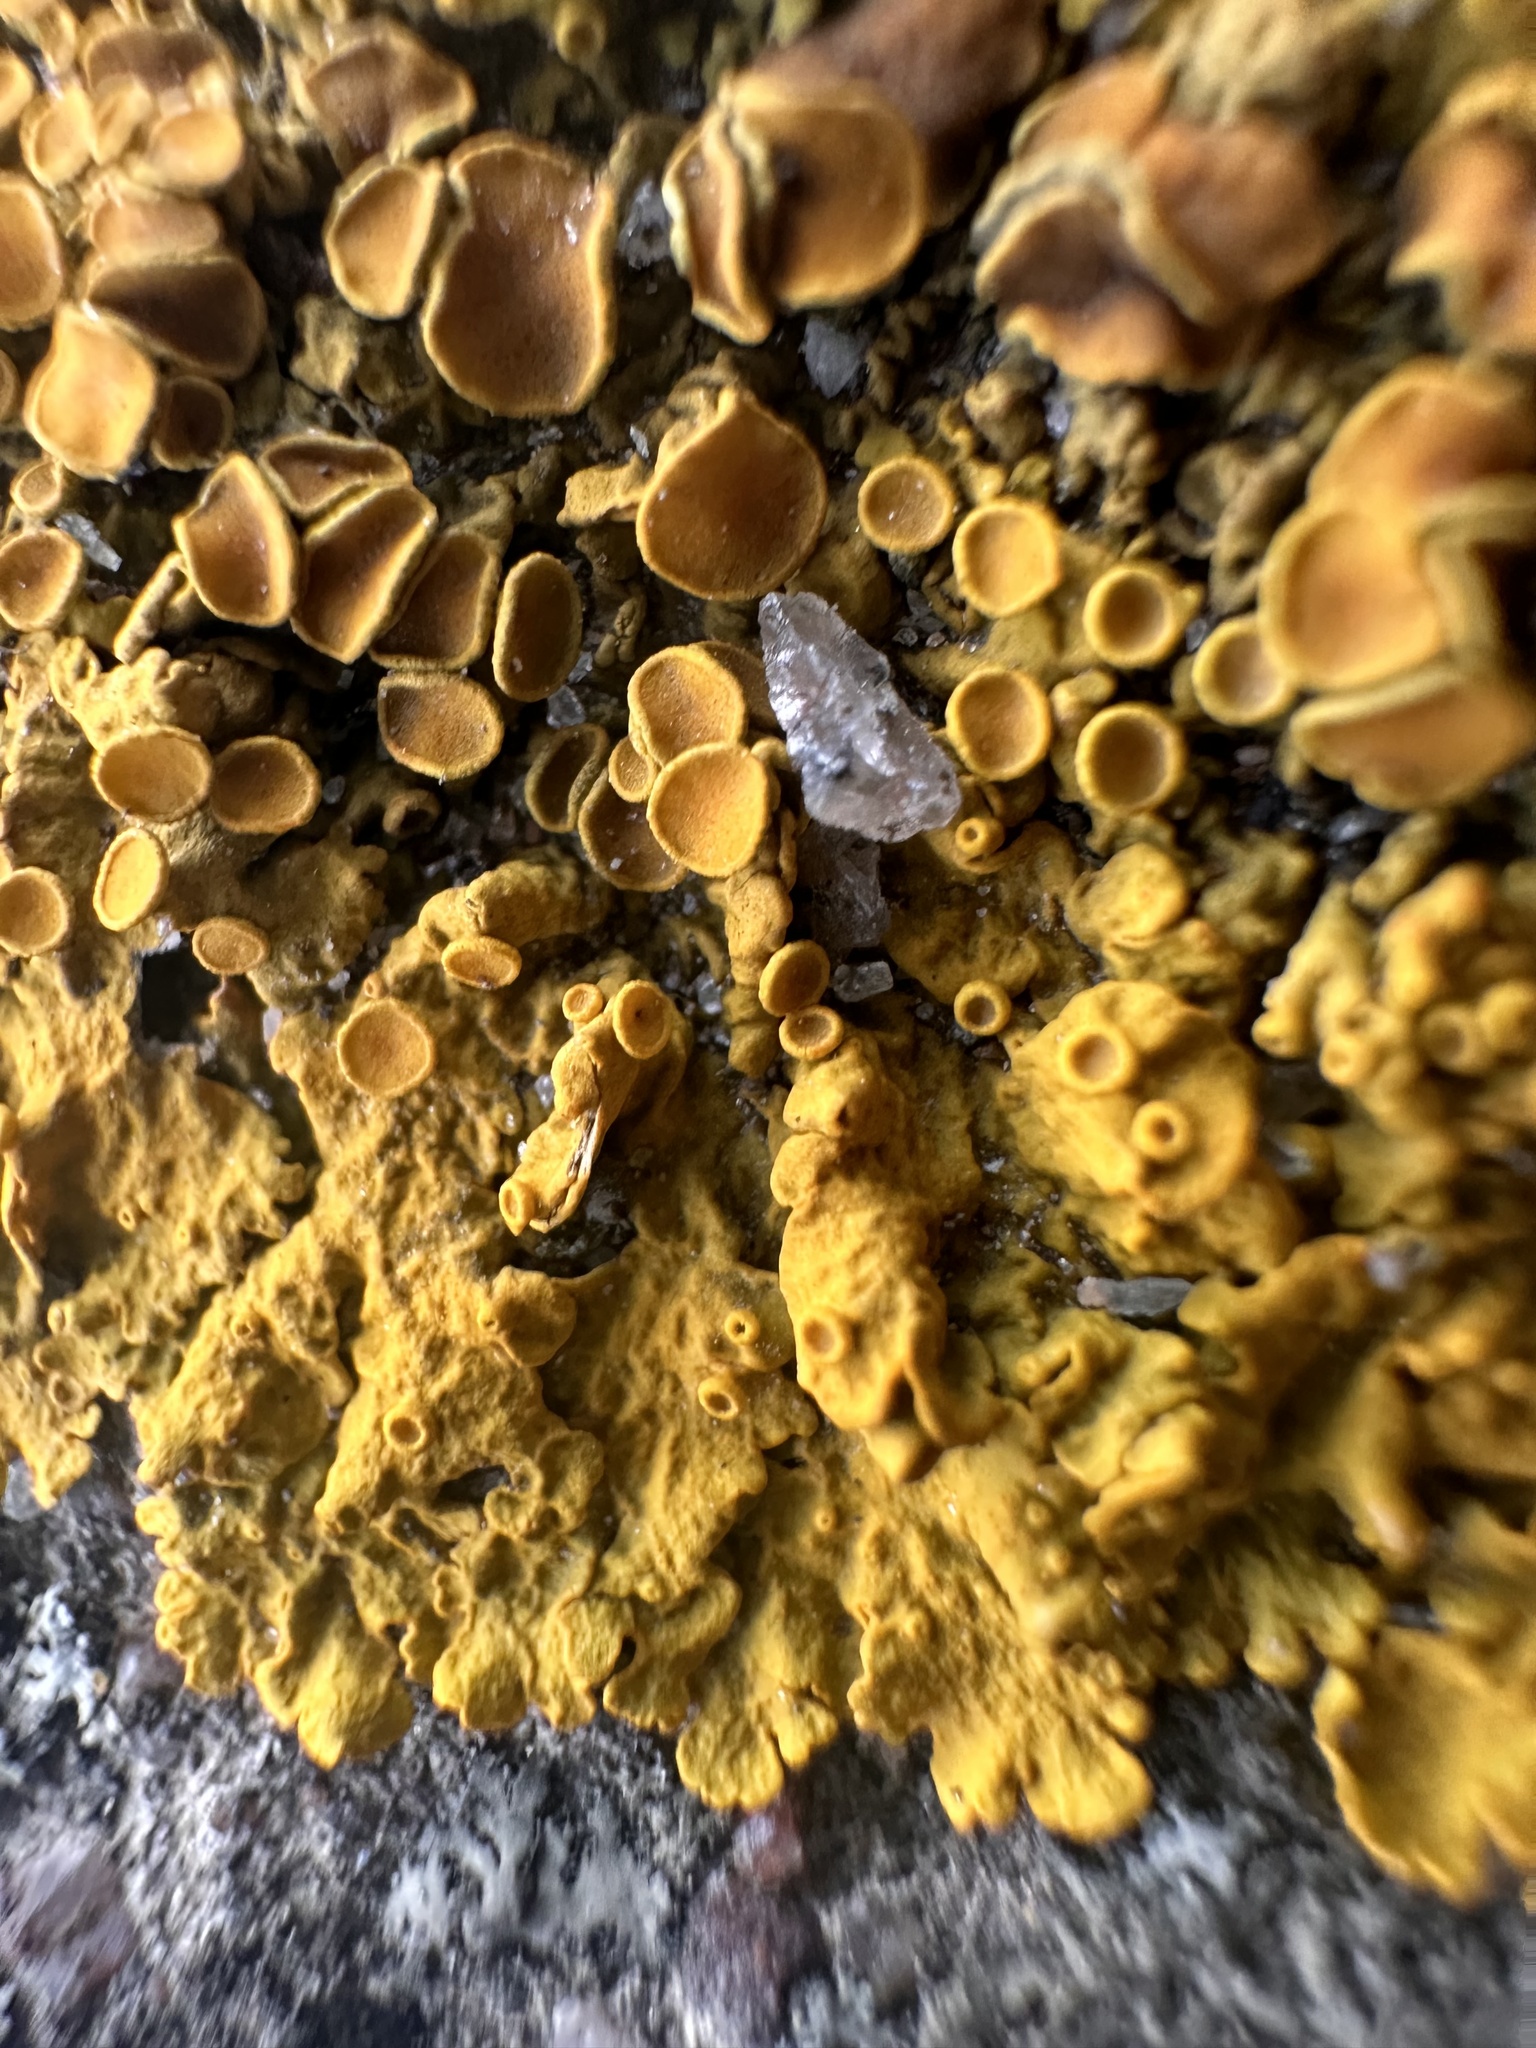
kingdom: Fungi
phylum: Ascomycota
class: Lecanoromycetes
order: Teloschistales
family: Teloschistaceae
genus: Xanthoria
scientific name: Xanthoria parietina
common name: Common orange lichen
